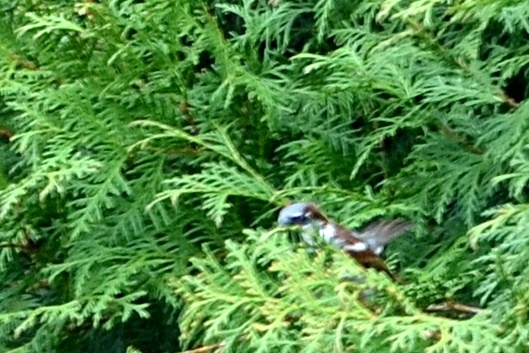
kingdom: Animalia
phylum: Chordata
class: Aves
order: Passeriformes
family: Passeridae
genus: Passer
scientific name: Passer domesticus
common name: House sparrow
